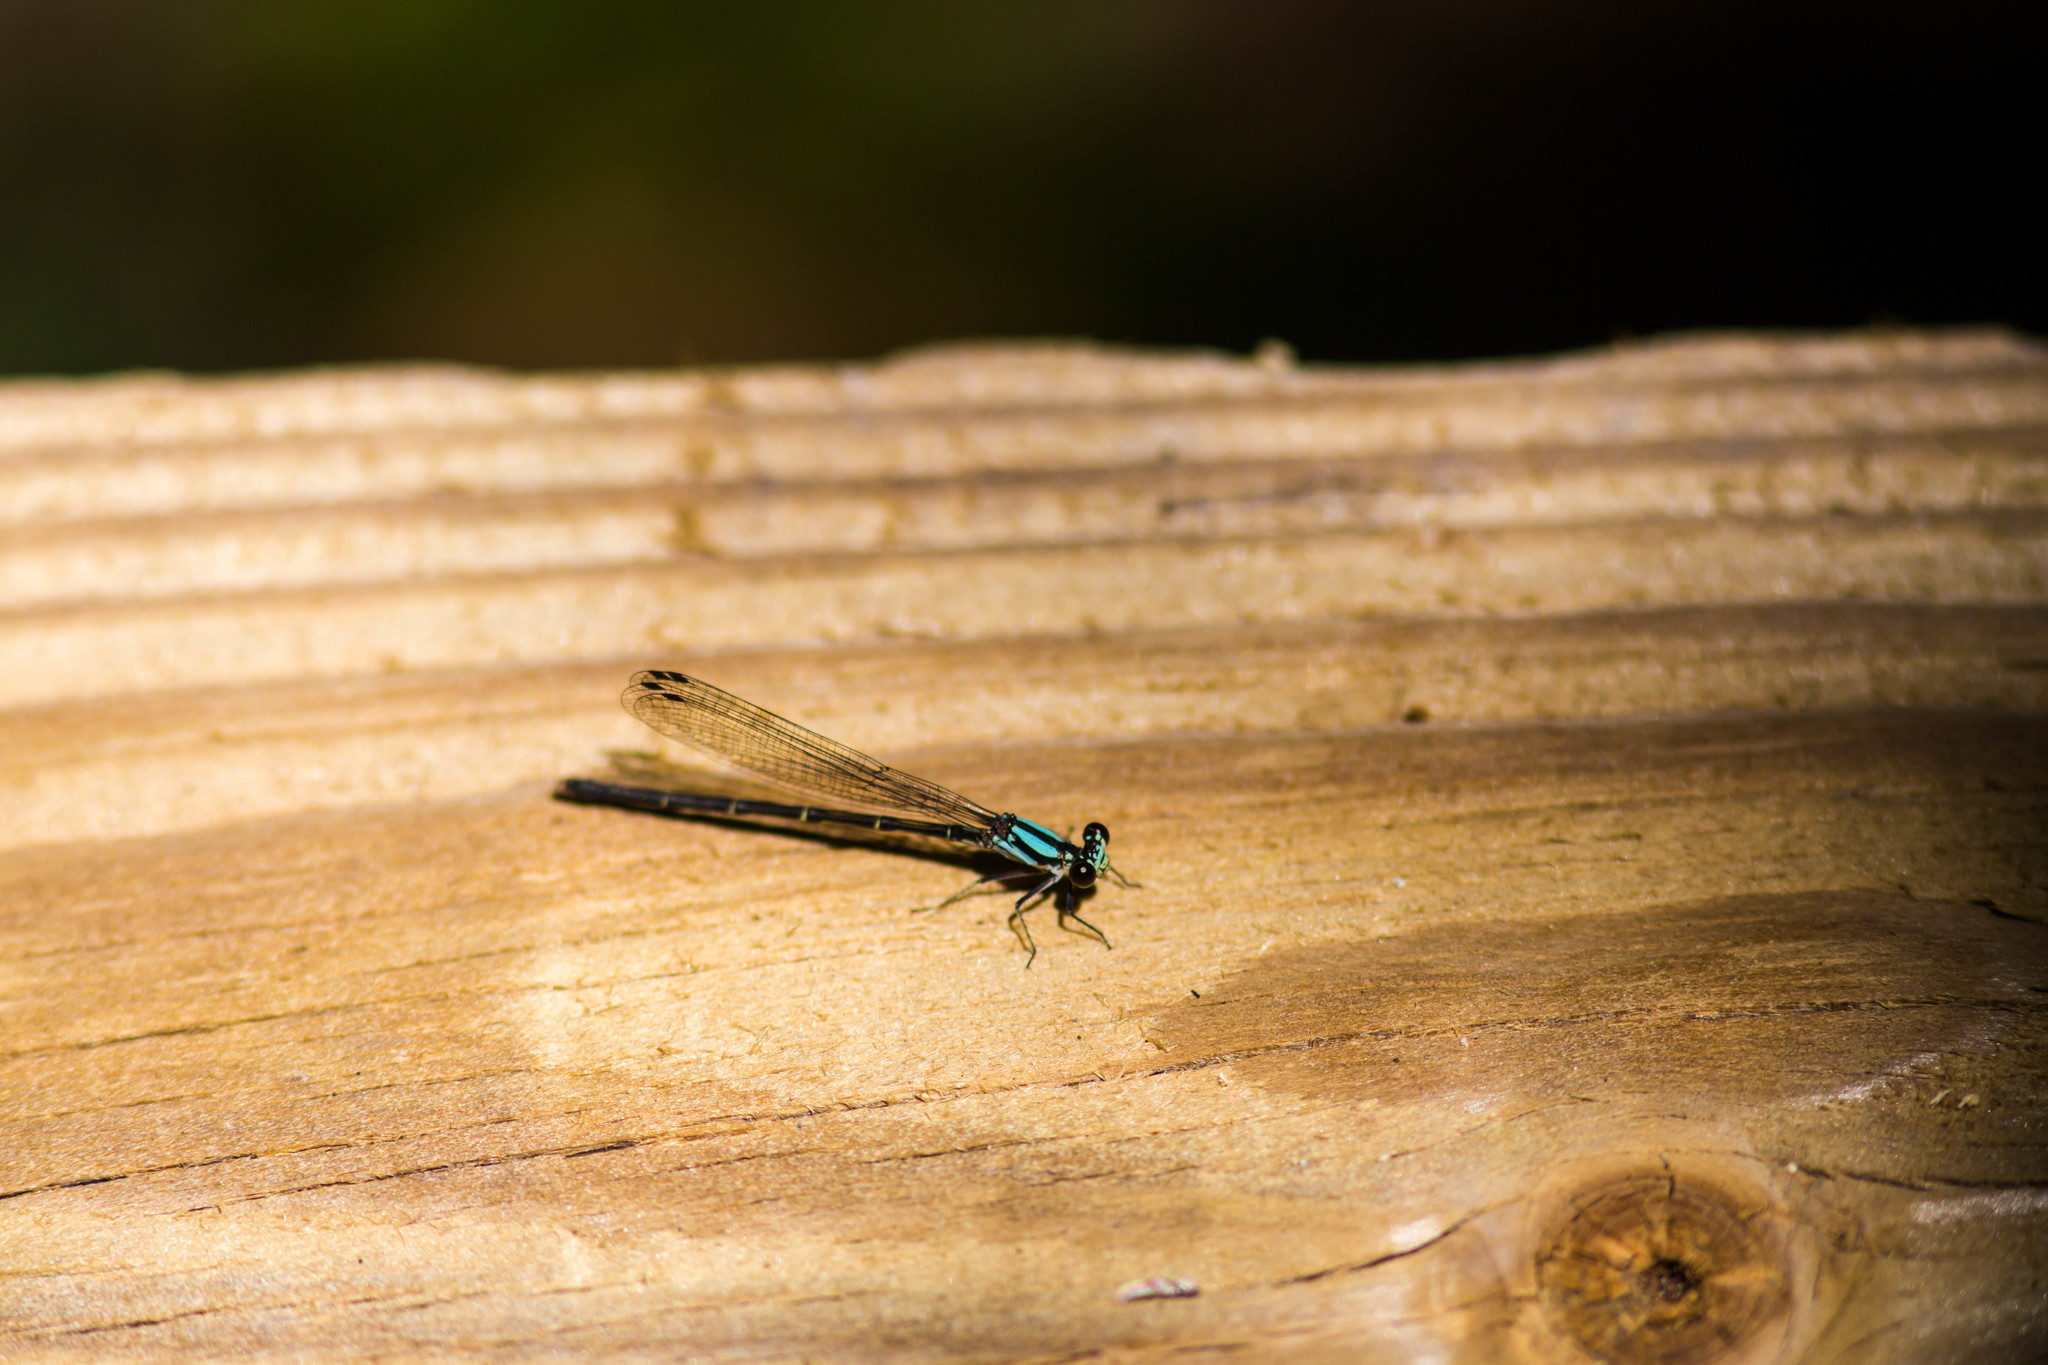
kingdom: Animalia
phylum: Arthropoda
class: Insecta
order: Odonata
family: Coenagrionidae
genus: Argia
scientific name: Argia tibialis
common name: Blue-tipped dancer
